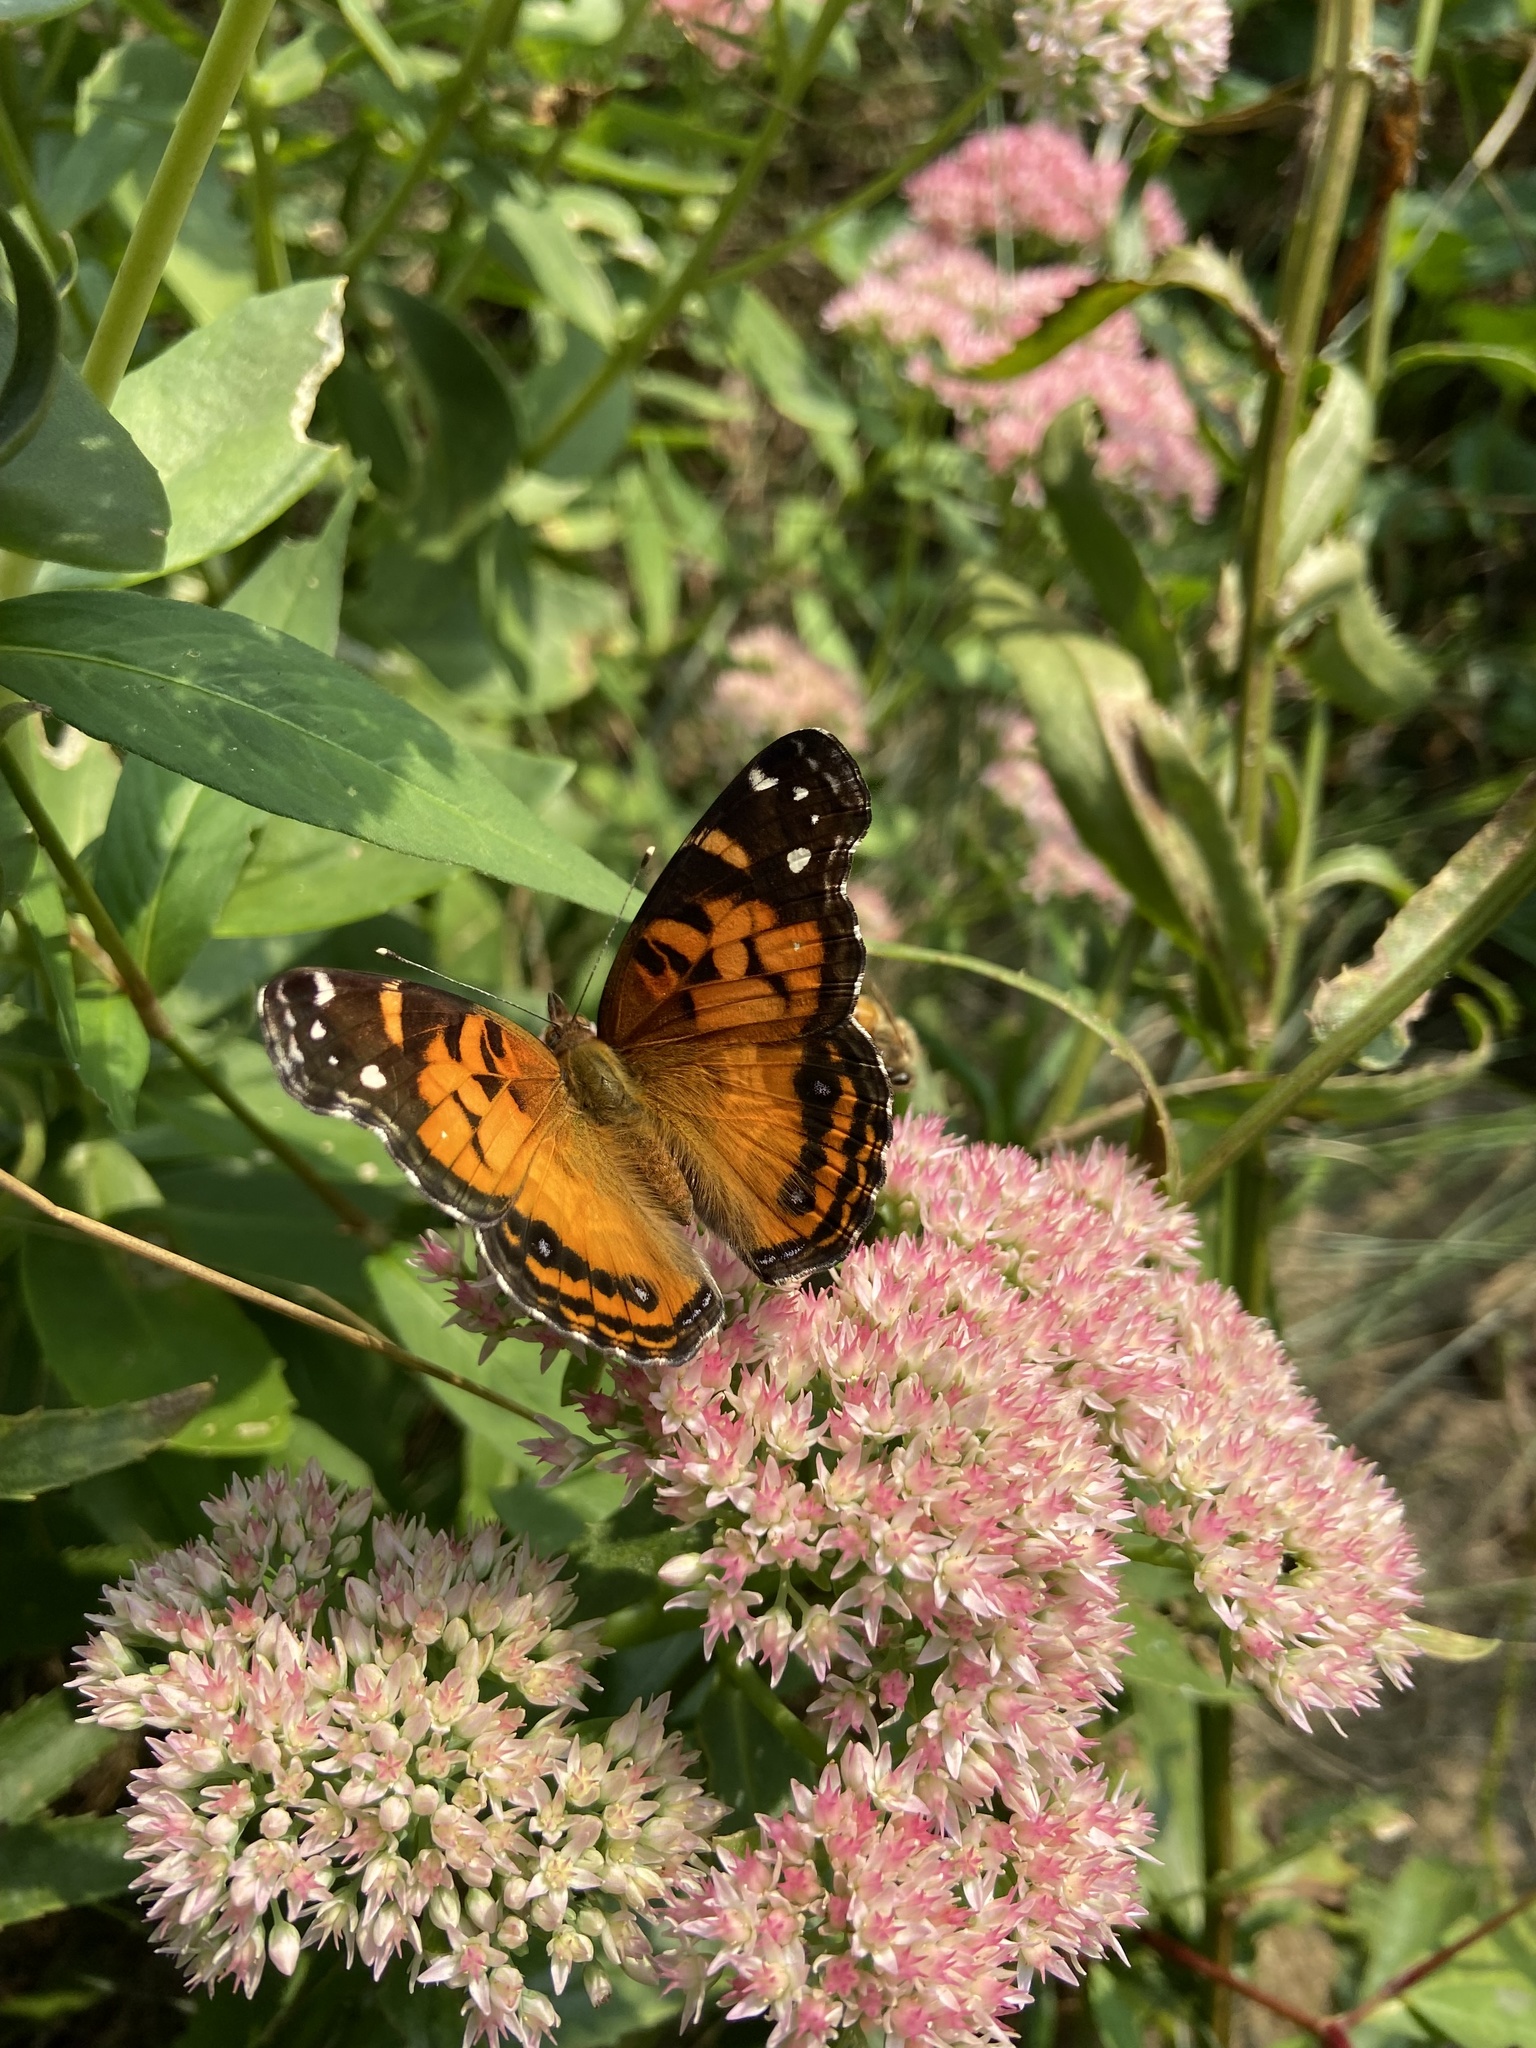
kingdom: Animalia
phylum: Arthropoda
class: Insecta
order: Lepidoptera
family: Nymphalidae
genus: Vanessa
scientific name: Vanessa virginiensis
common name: American lady
